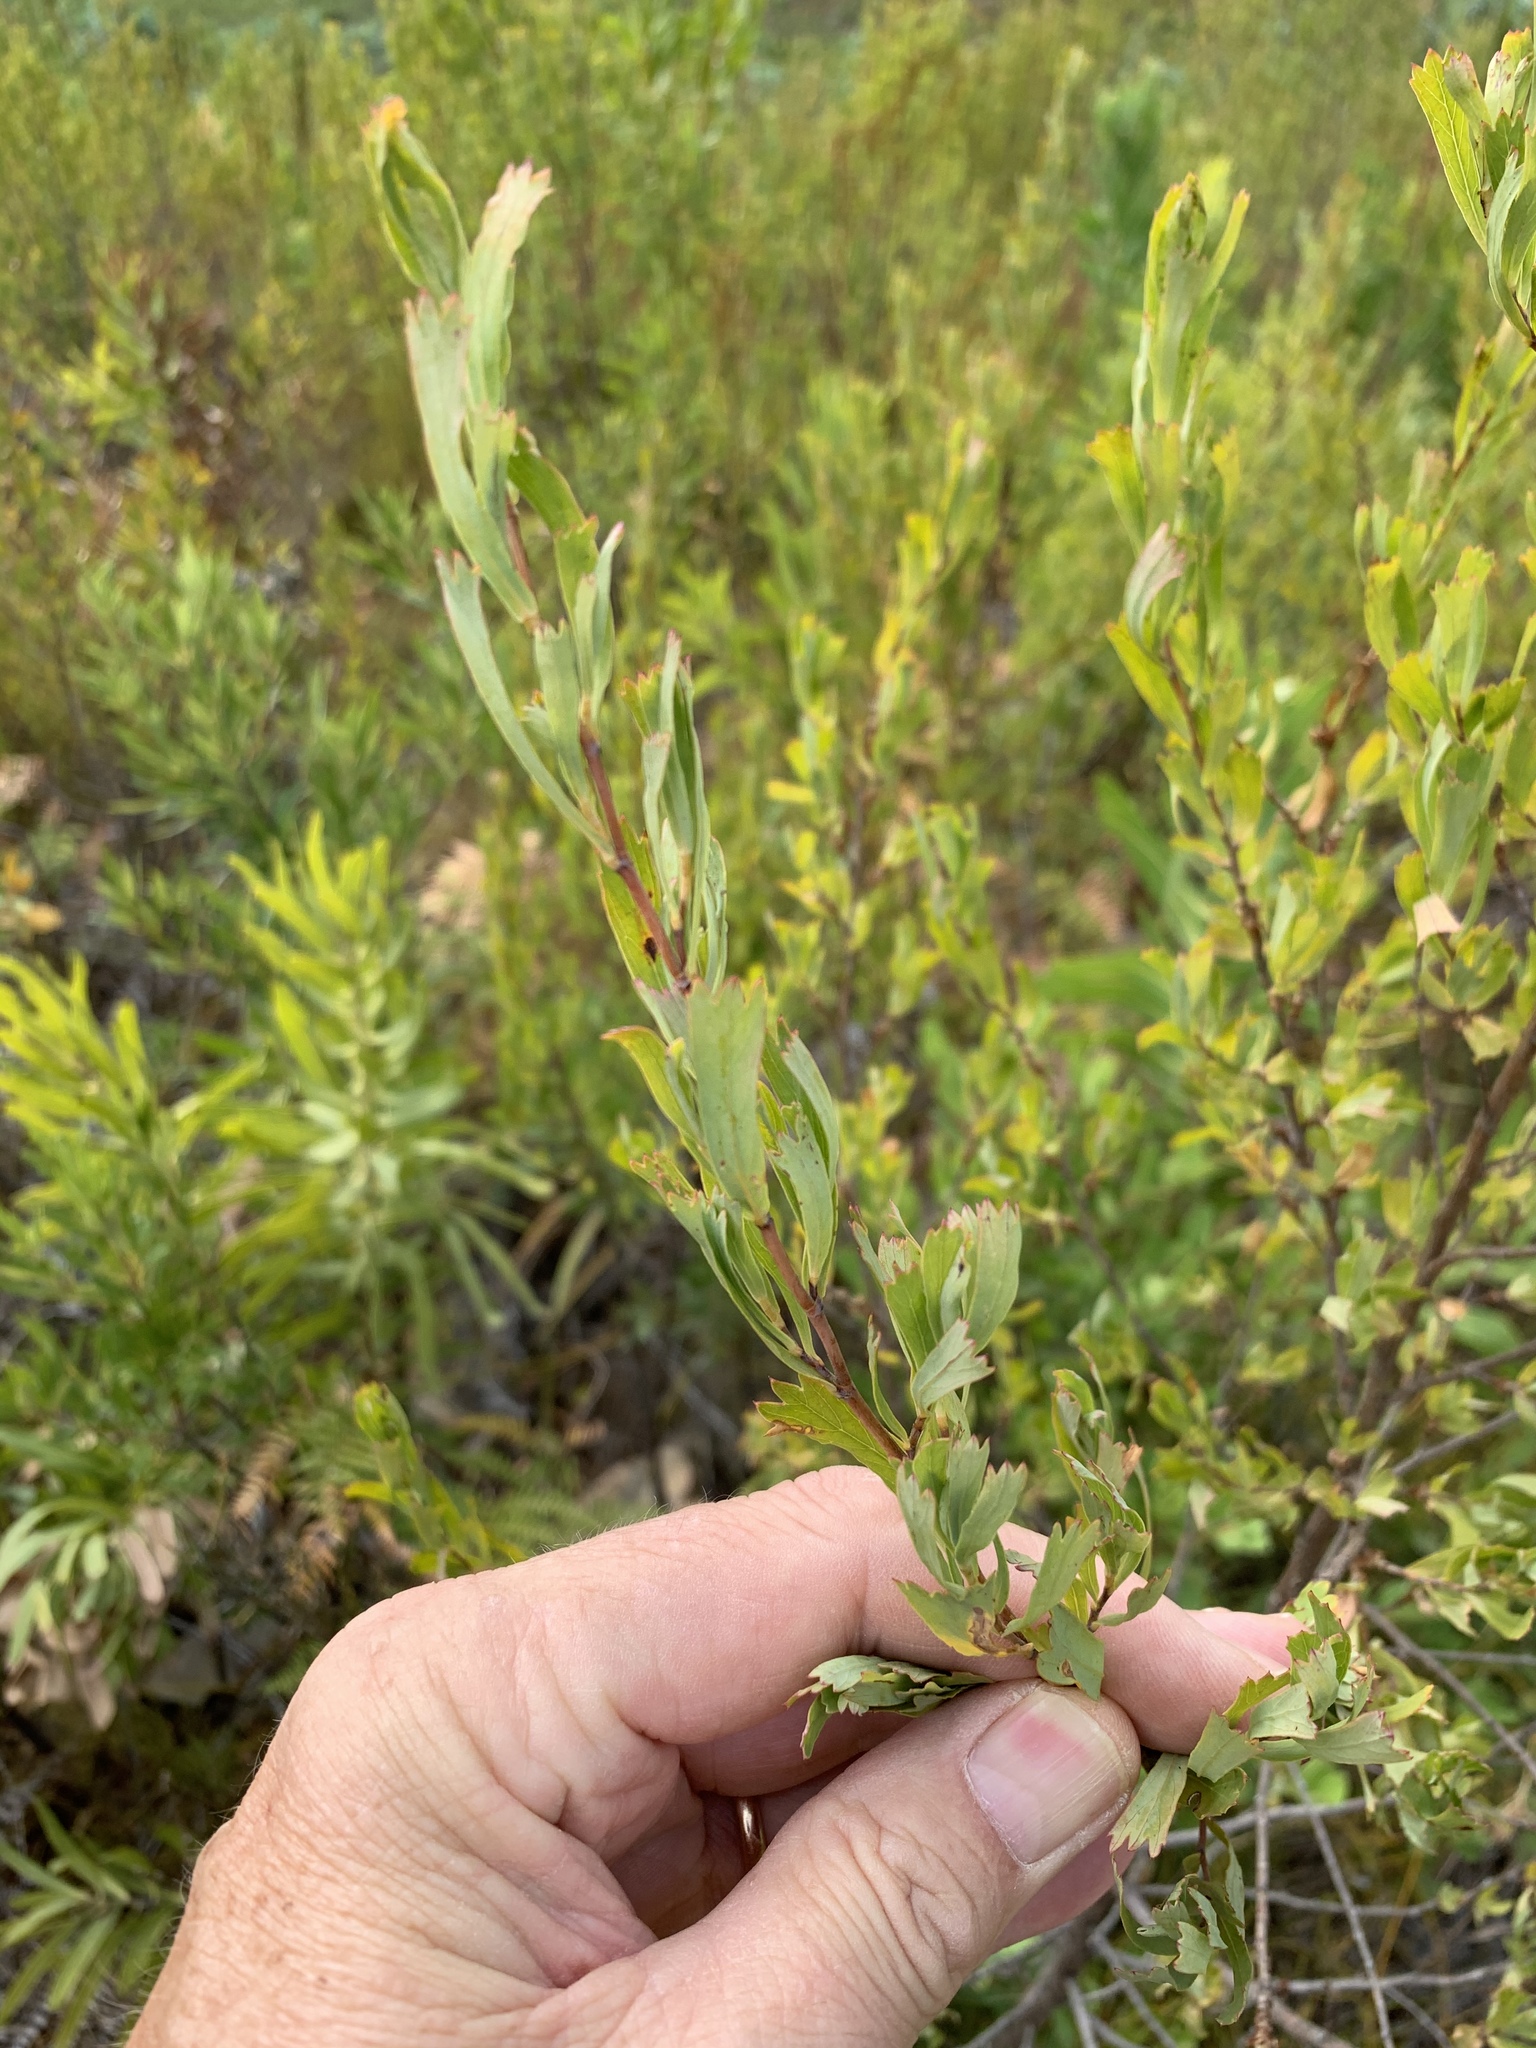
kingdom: Plantae
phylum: Tracheophyta
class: Magnoliopsida
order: Rosales
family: Rosaceae
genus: Cliffortia
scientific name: Cliffortia cuneata
